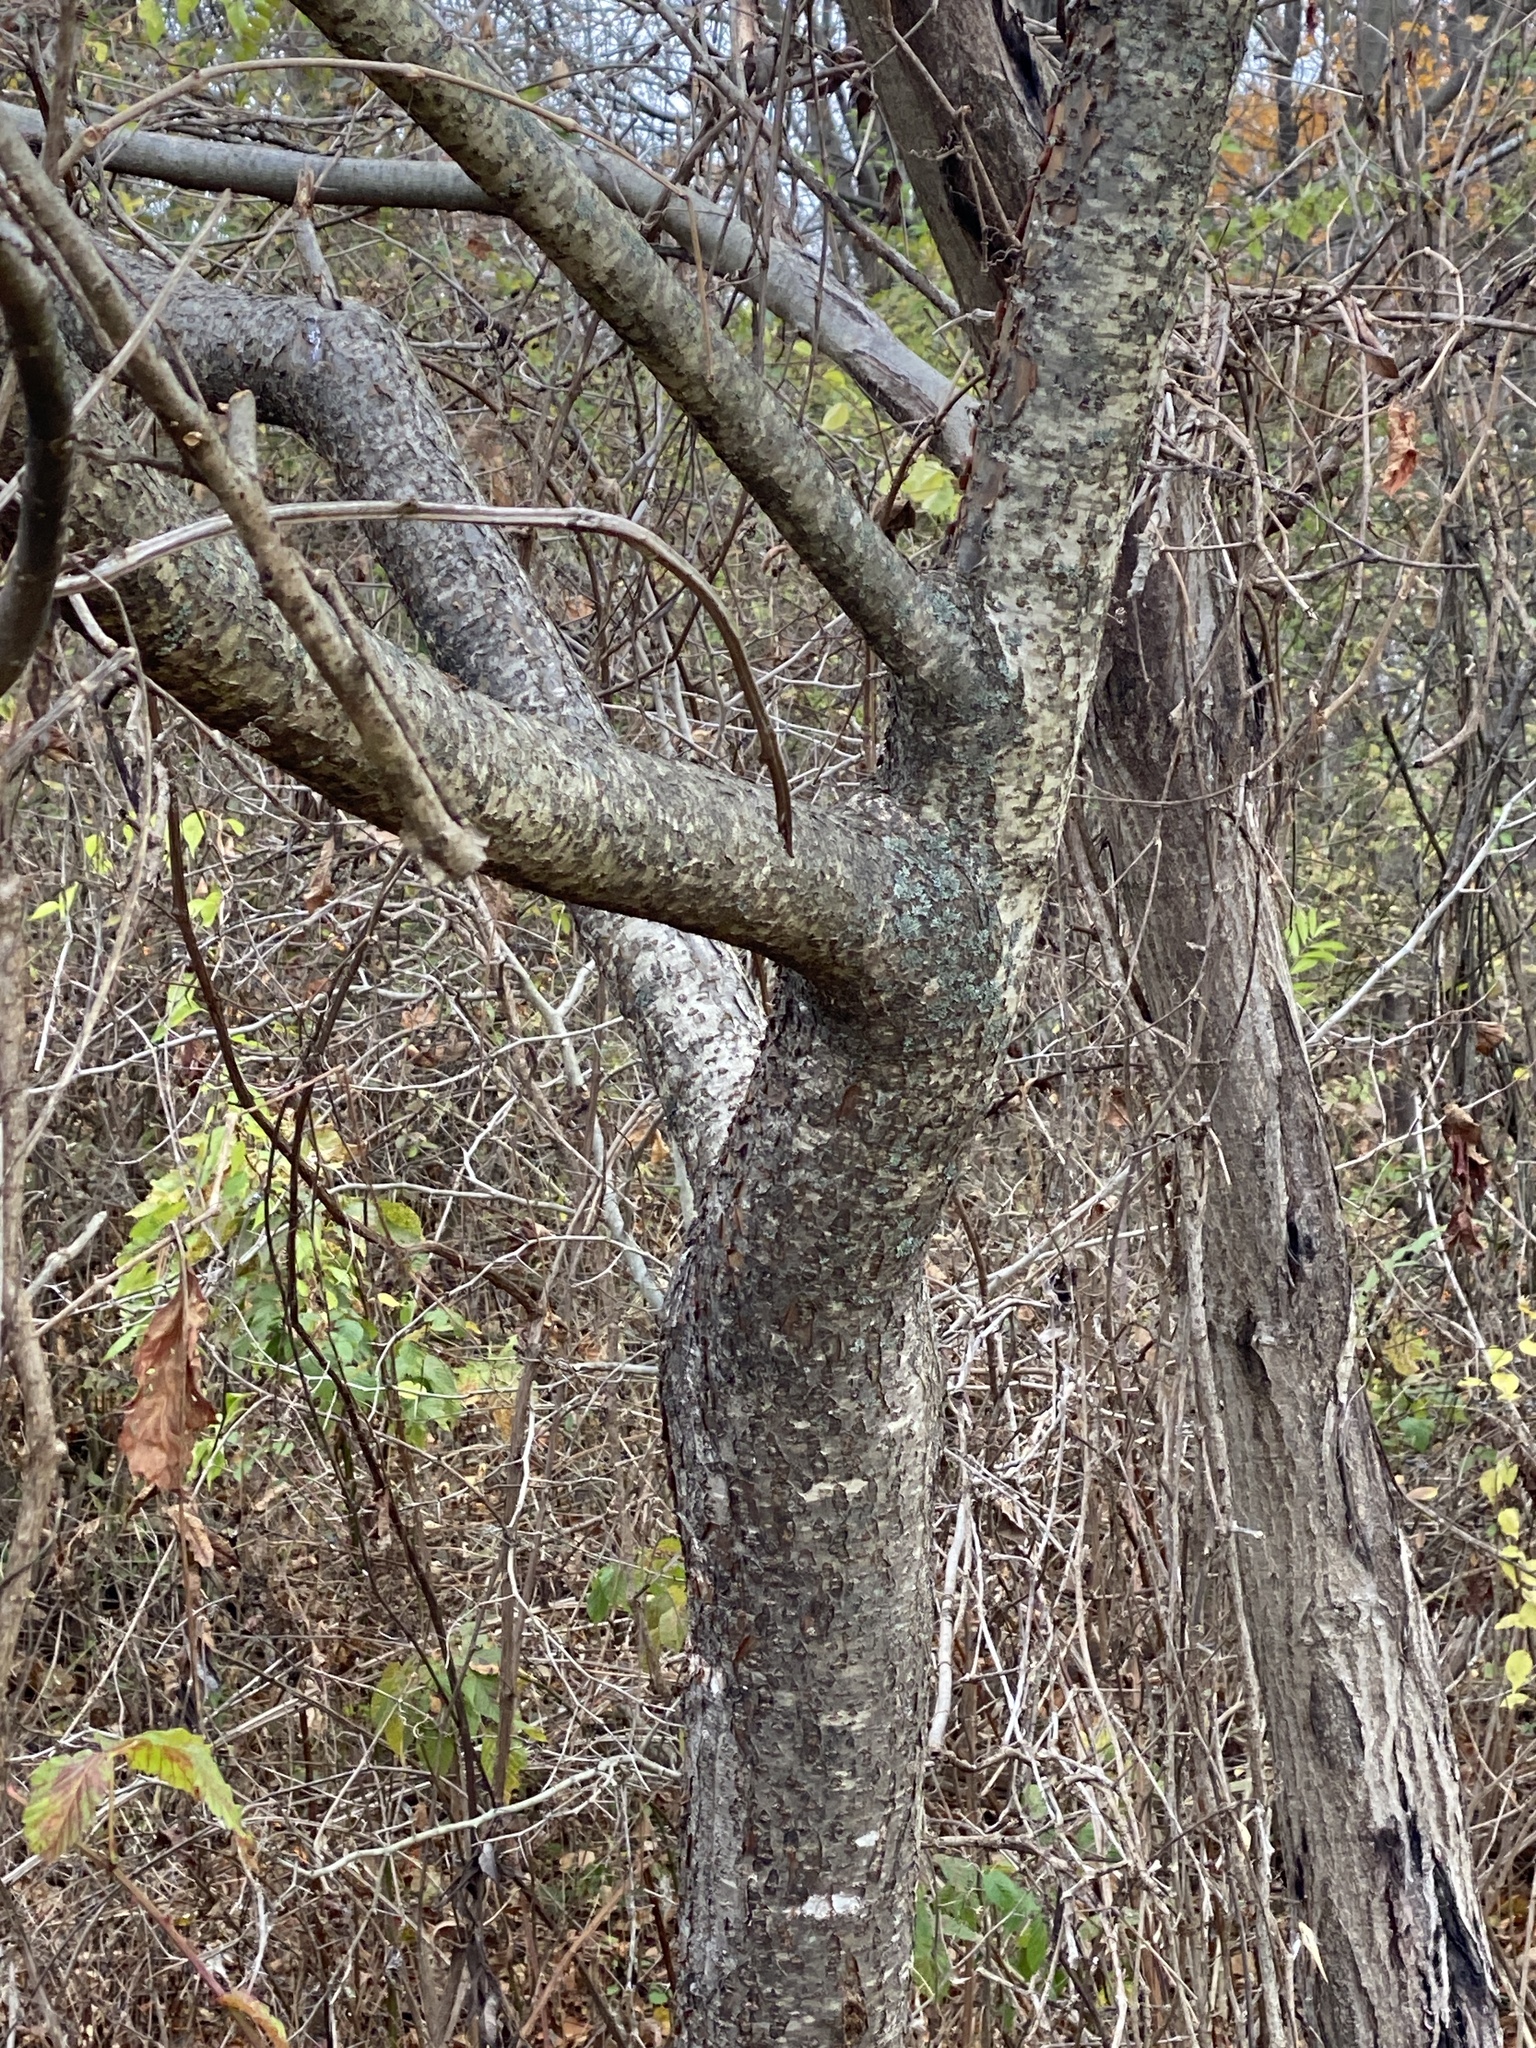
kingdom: Plantae
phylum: Tracheophyta
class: Magnoliopsida
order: Sapindales
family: Anacardiaceae
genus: Rhus
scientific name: Rhus typhina
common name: Staghorn sumac
